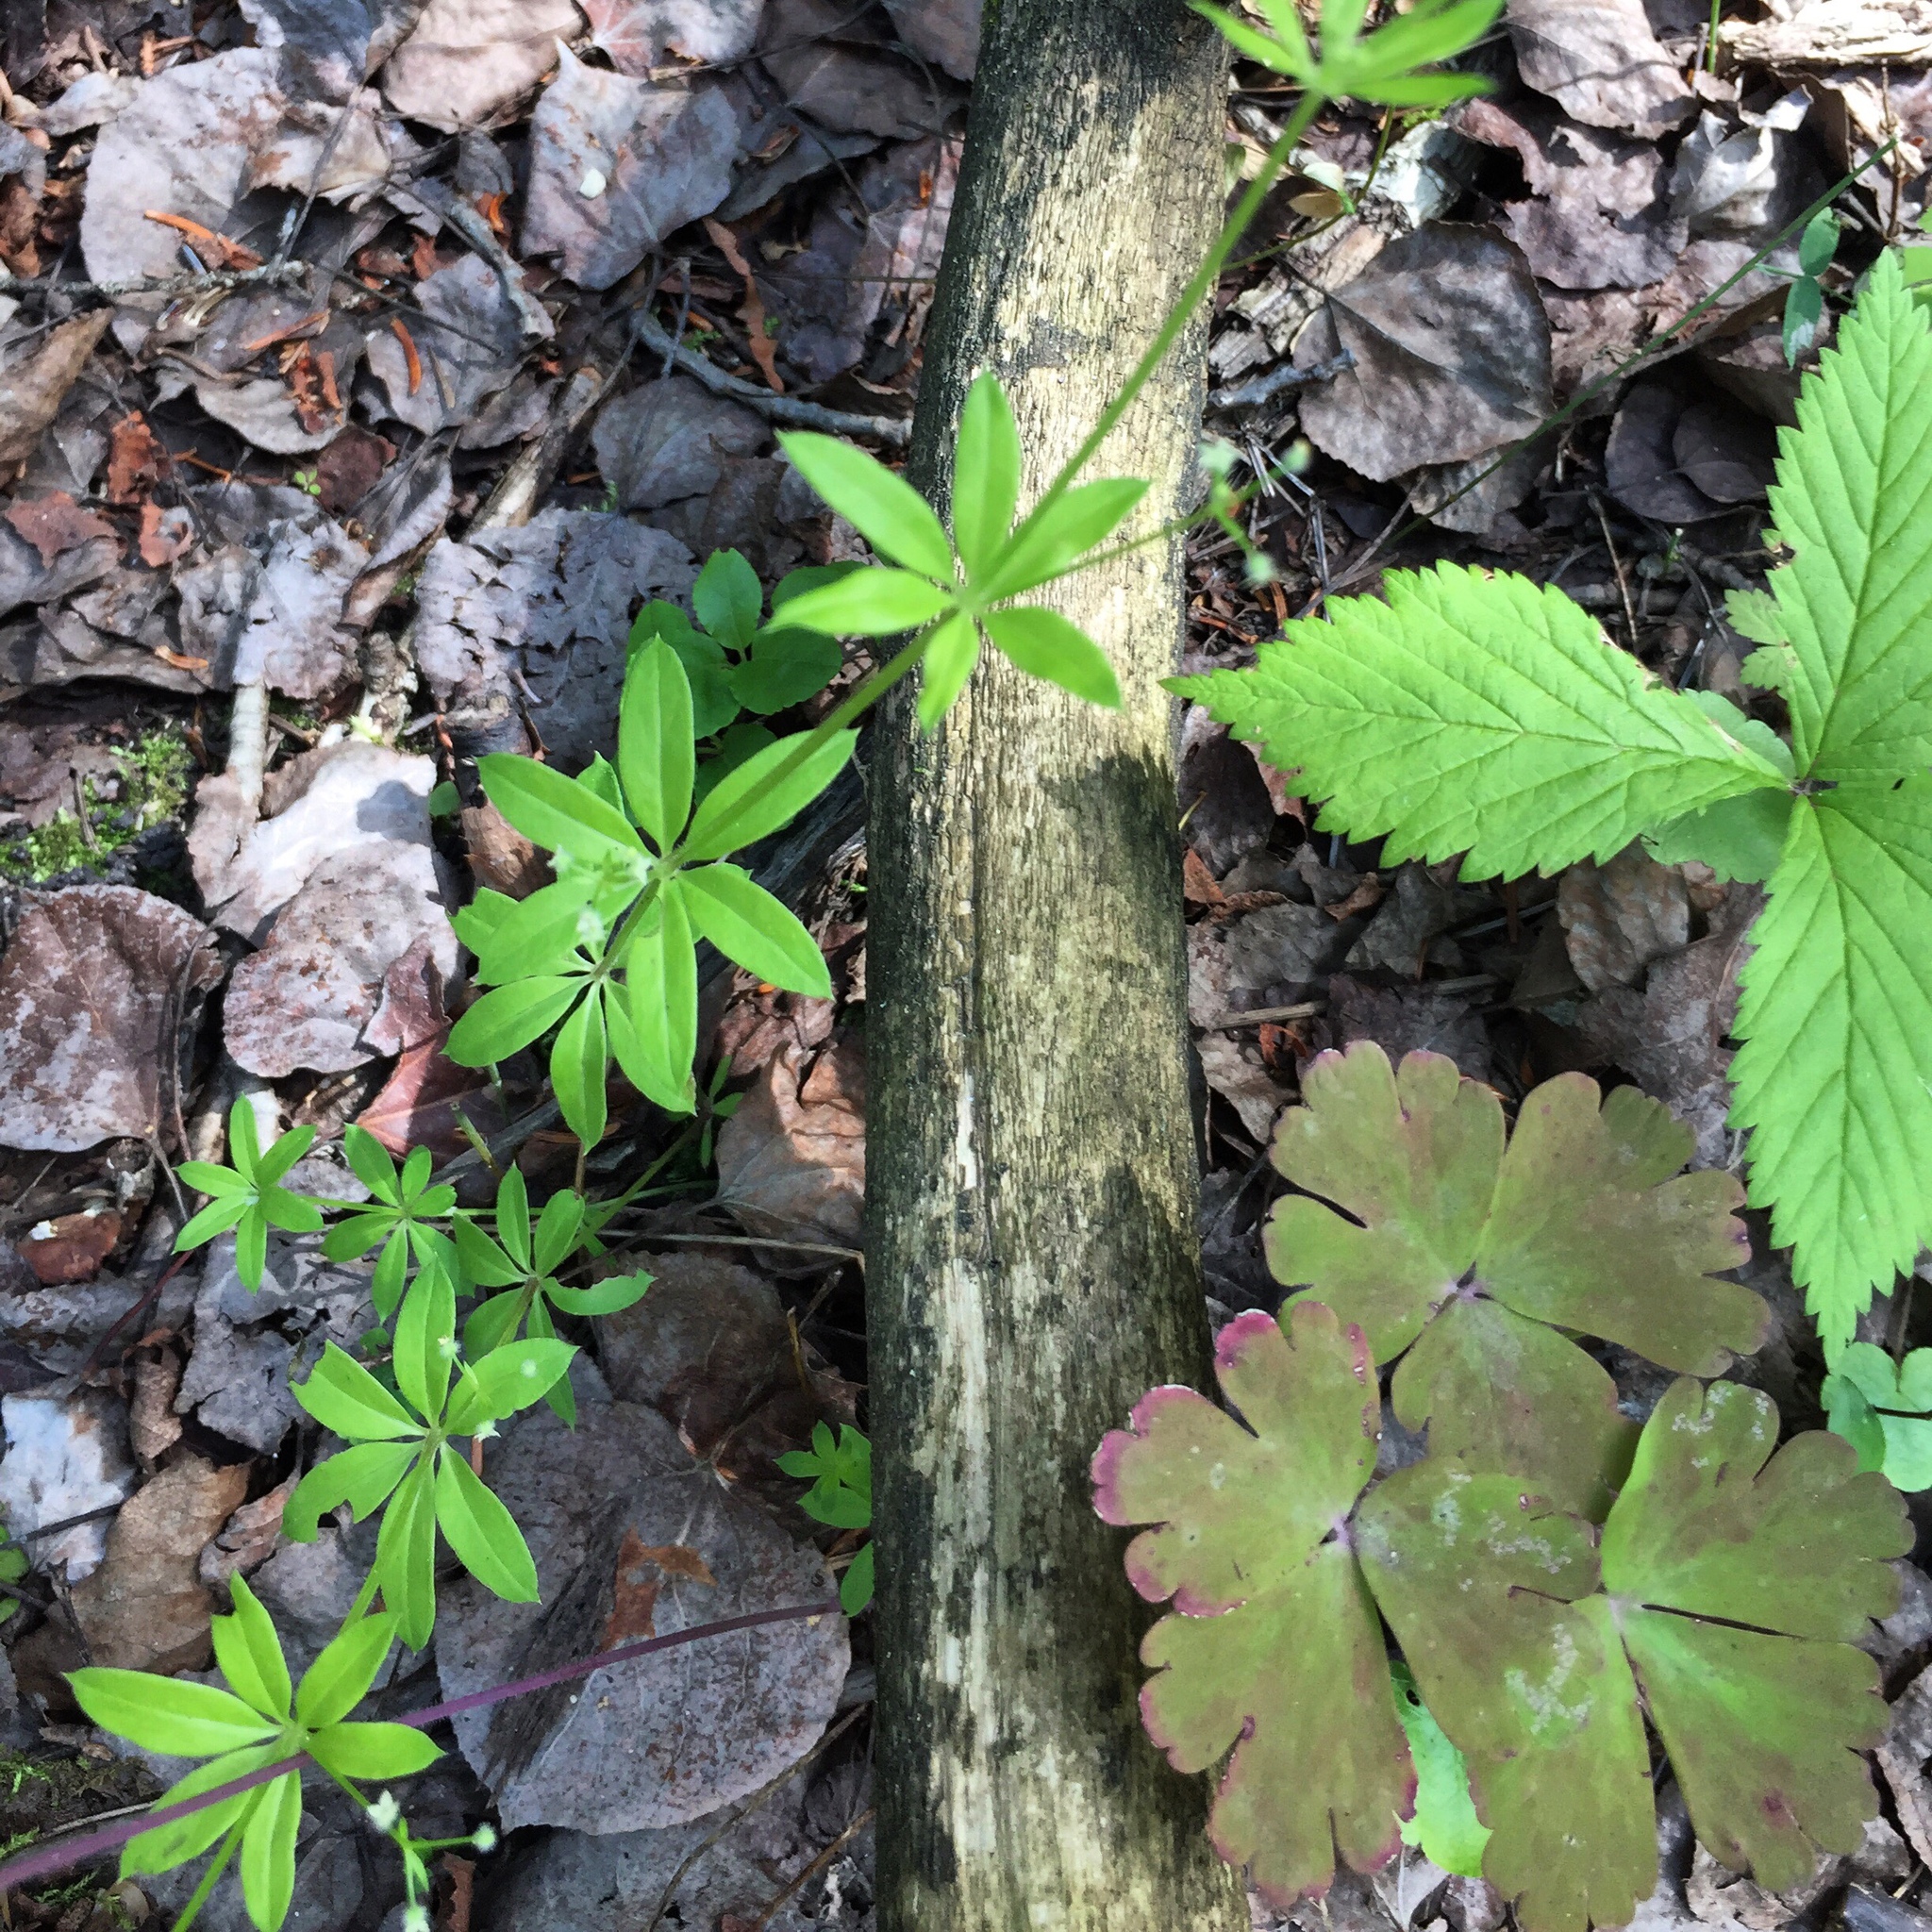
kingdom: Plantae
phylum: Tracheophyta
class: Magnoliopsida
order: Gentianales
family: Rubiaceae
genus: Galium
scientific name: Galium triflorum
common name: Fragrant bedstraw
